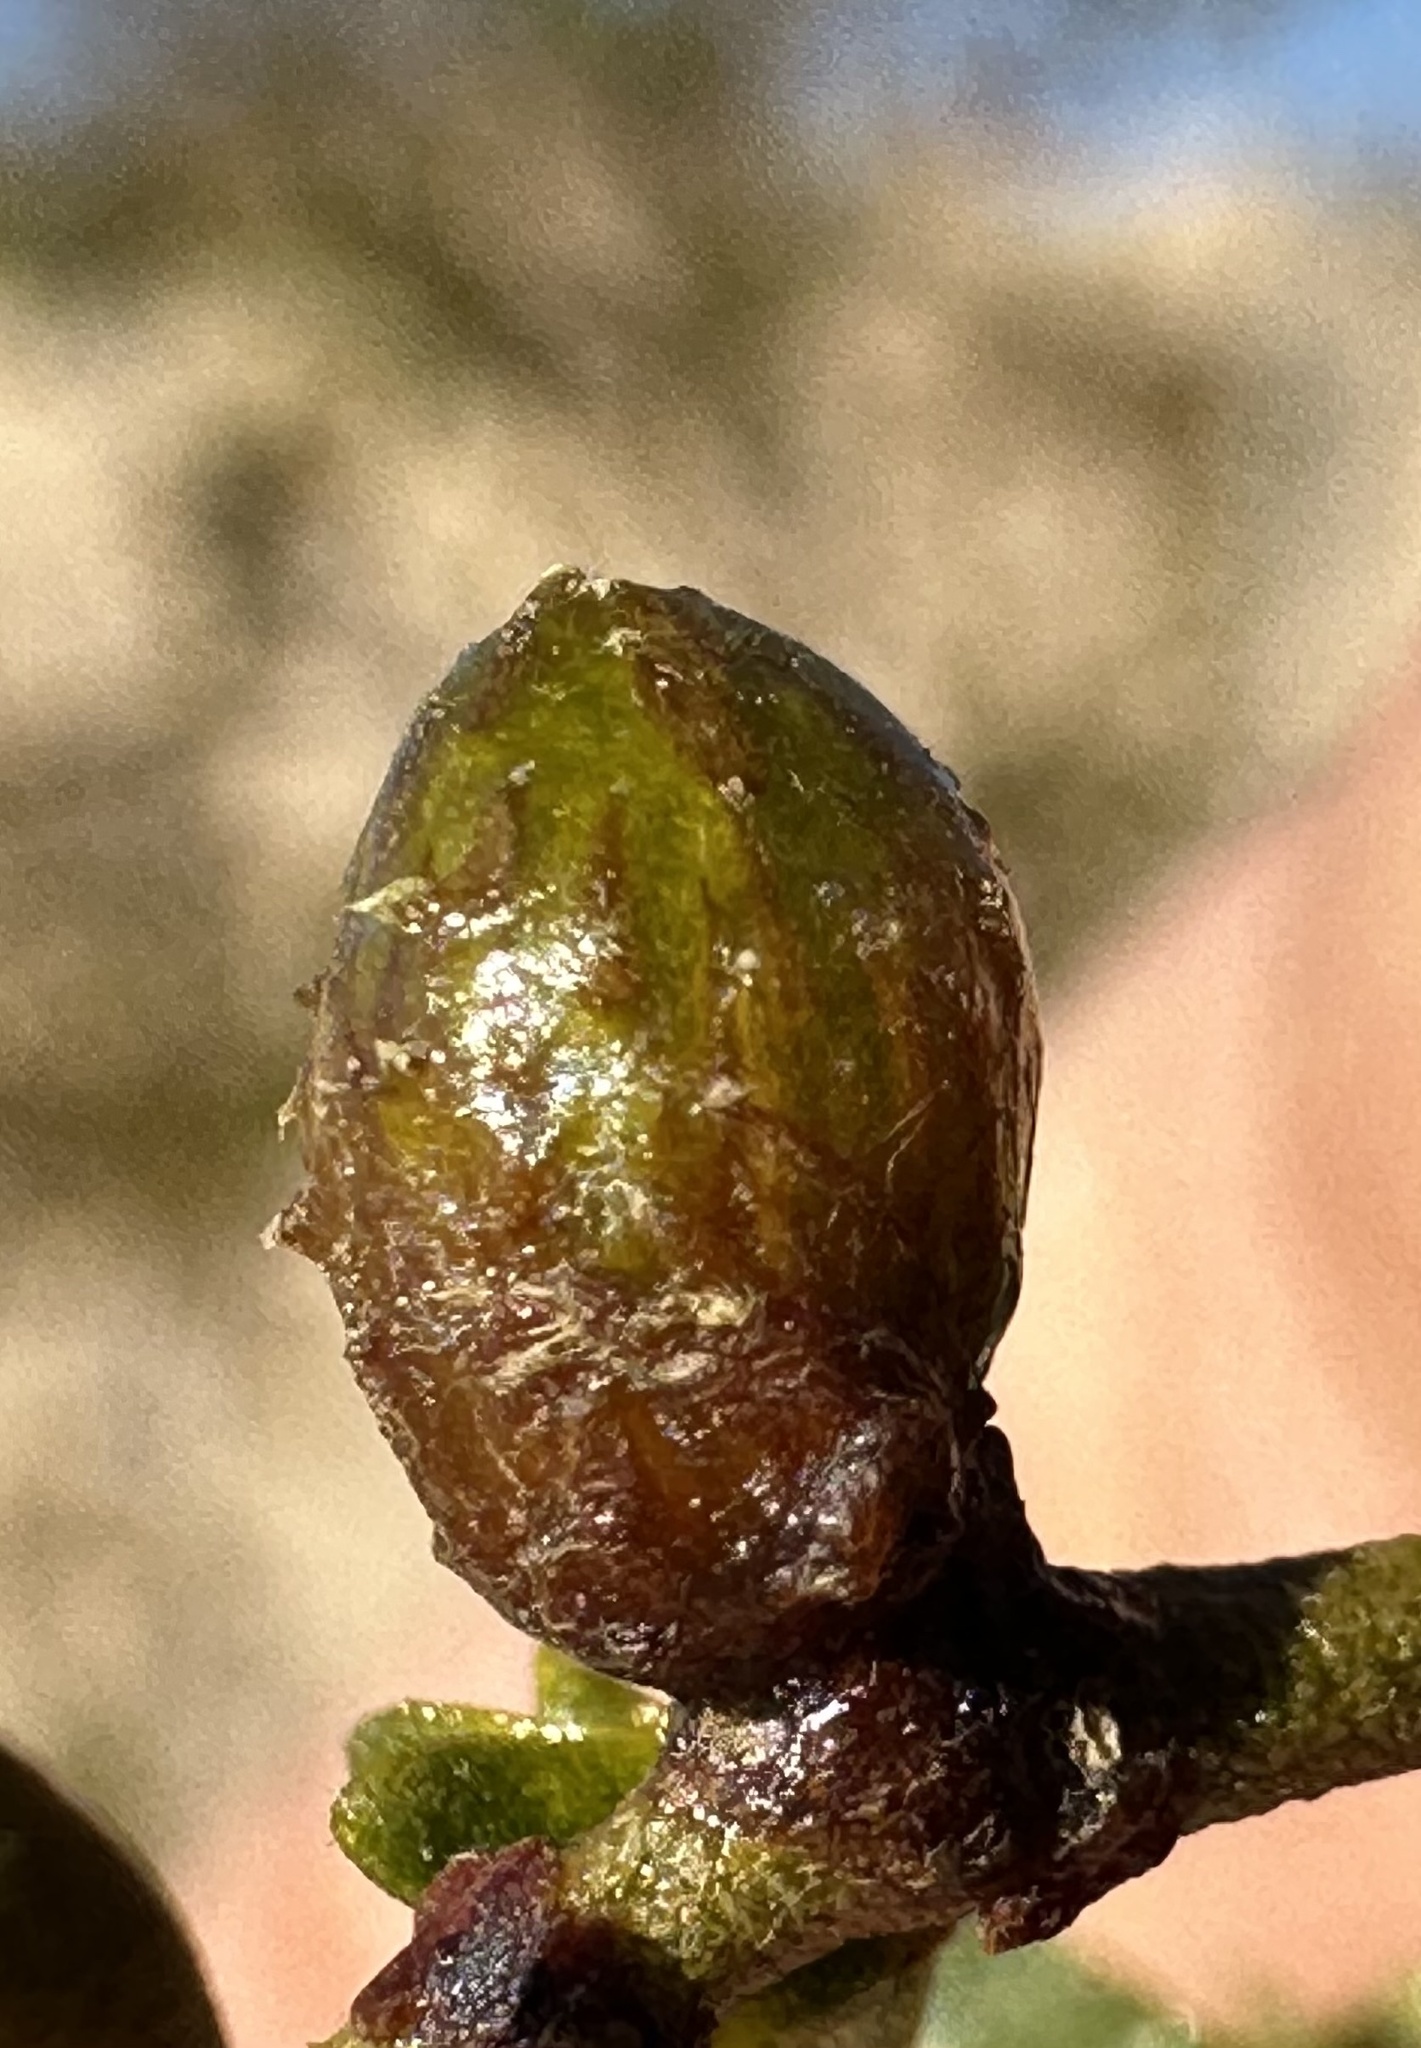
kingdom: Animalia
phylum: Arthropoda
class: Insecta
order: Diptera
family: Cecidomyiidae
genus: Asphondylia
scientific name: Asphondylia resinosa
